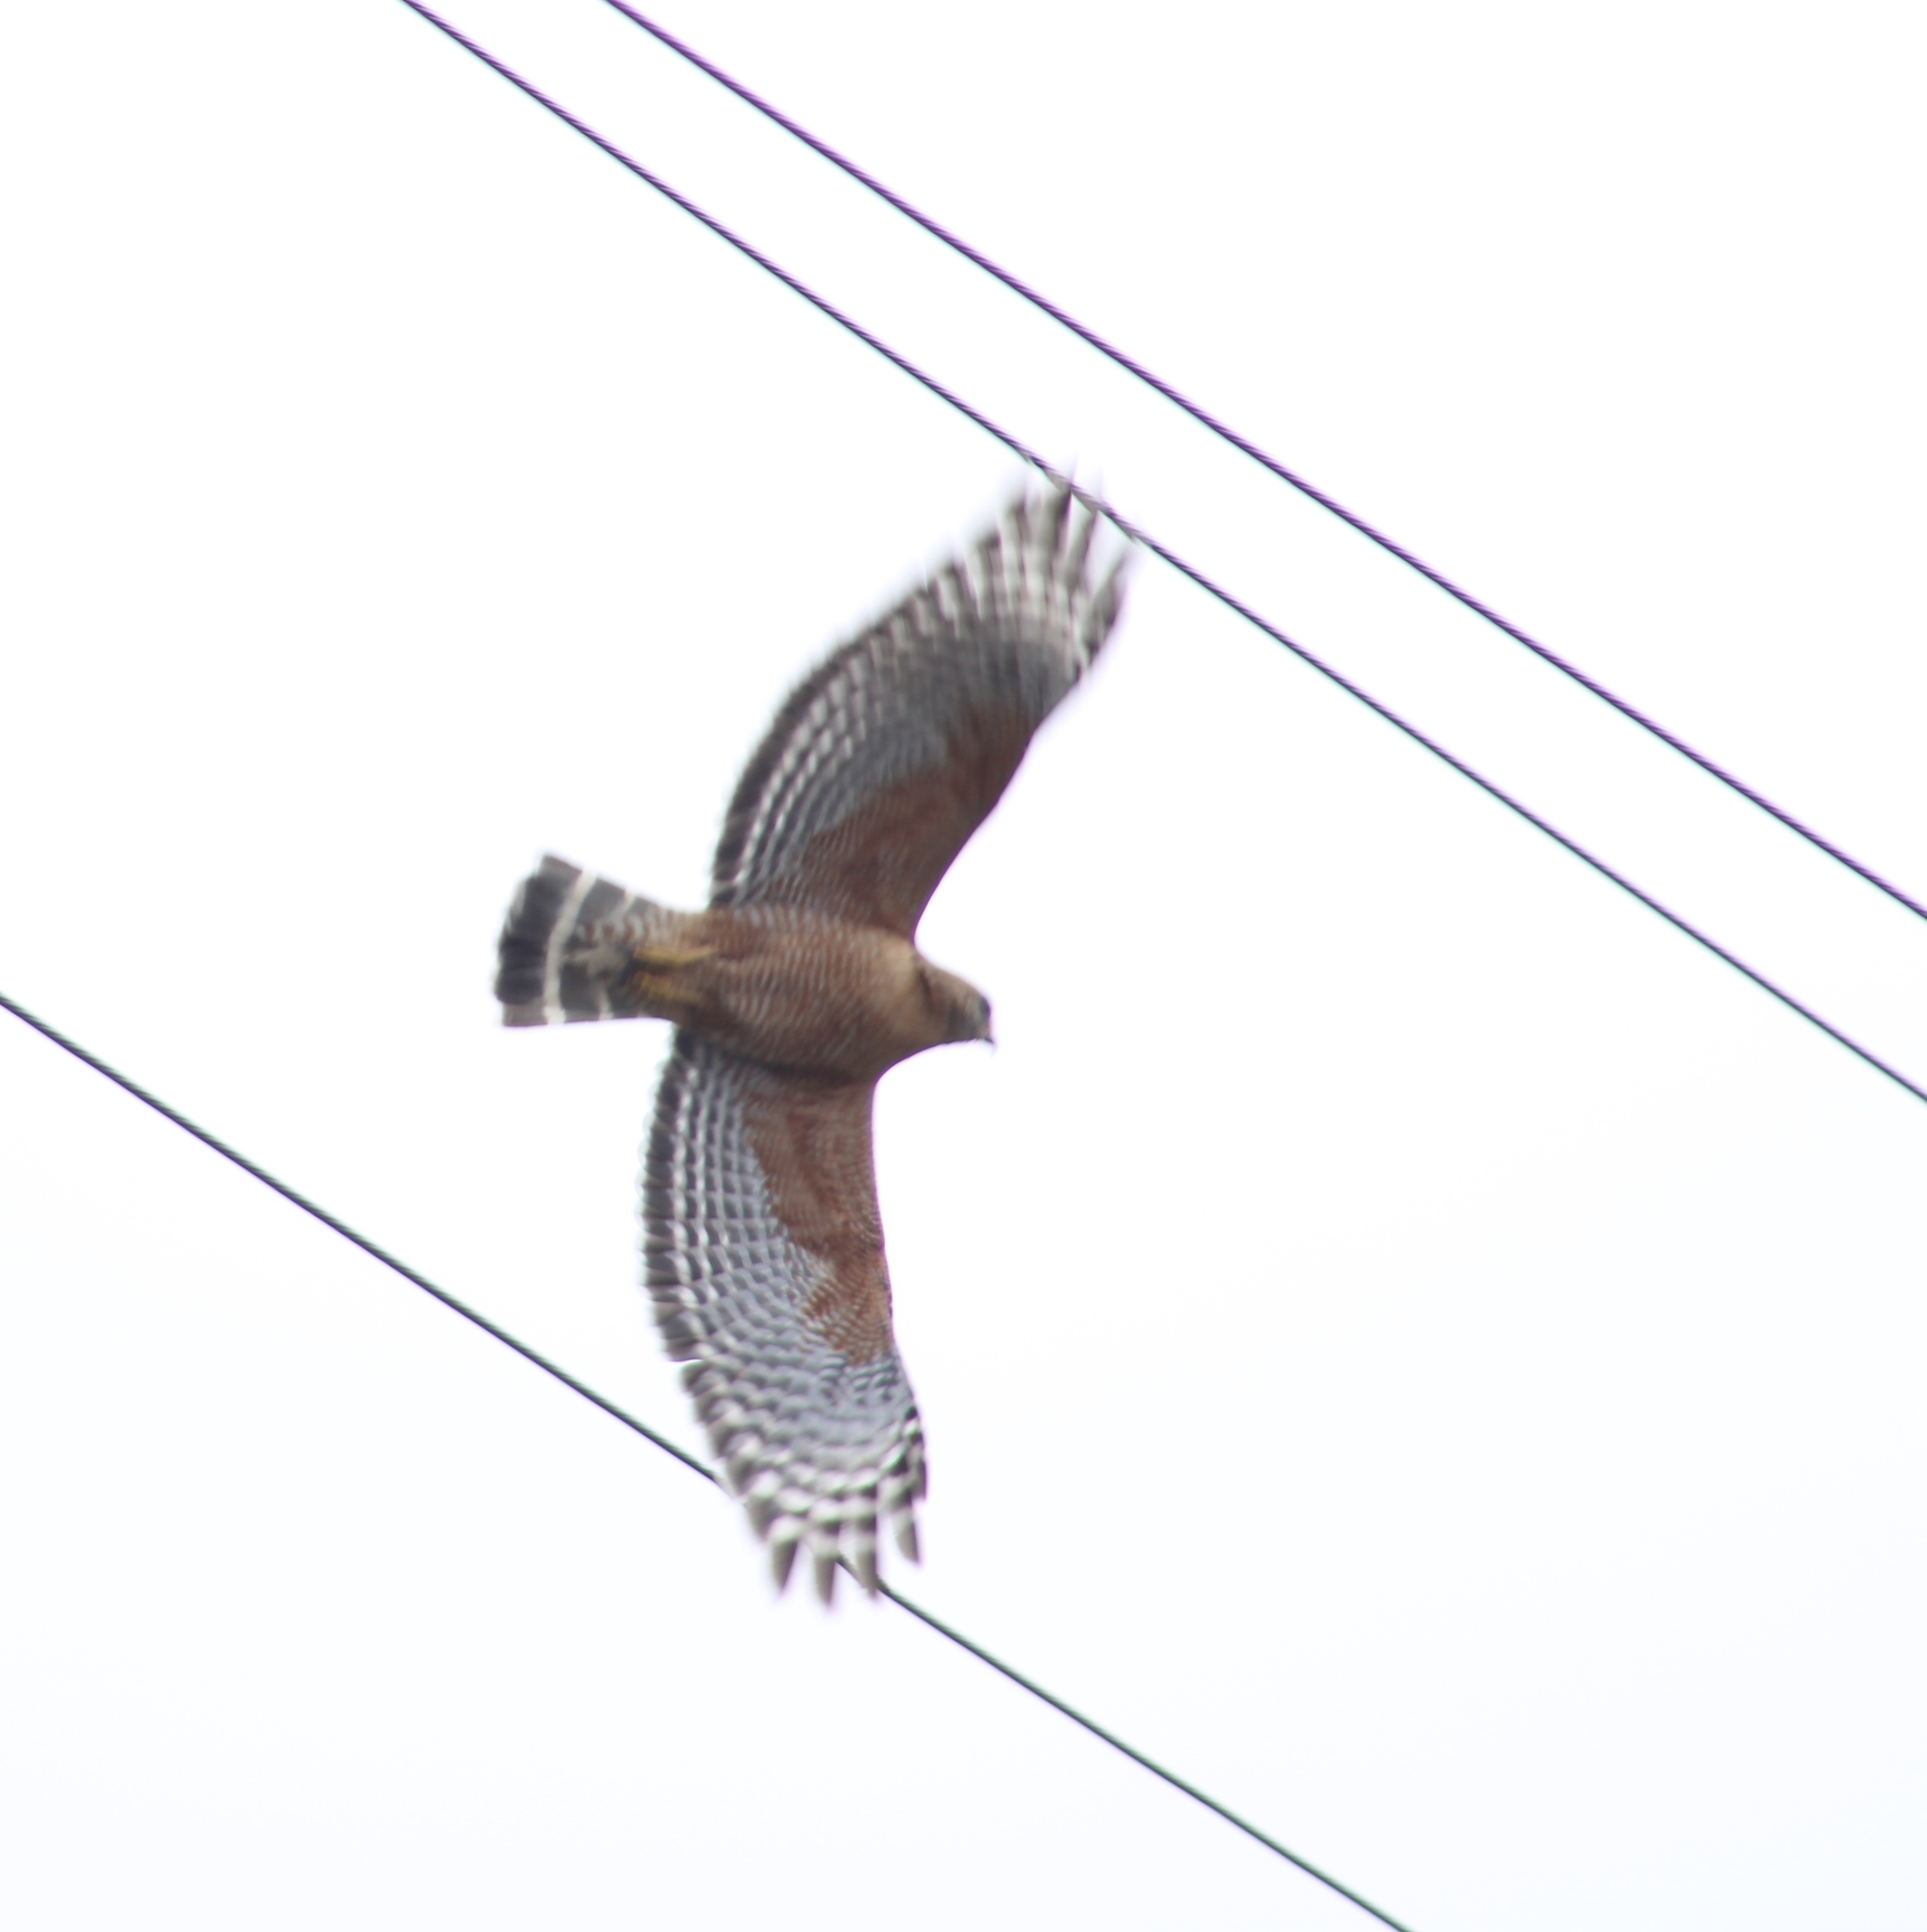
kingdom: Animalia
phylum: Chordata
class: Aves
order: Accipitriformes
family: Accipitridae
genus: Buteo
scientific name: Buteo lineatus
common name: Red-shouldered hawk
